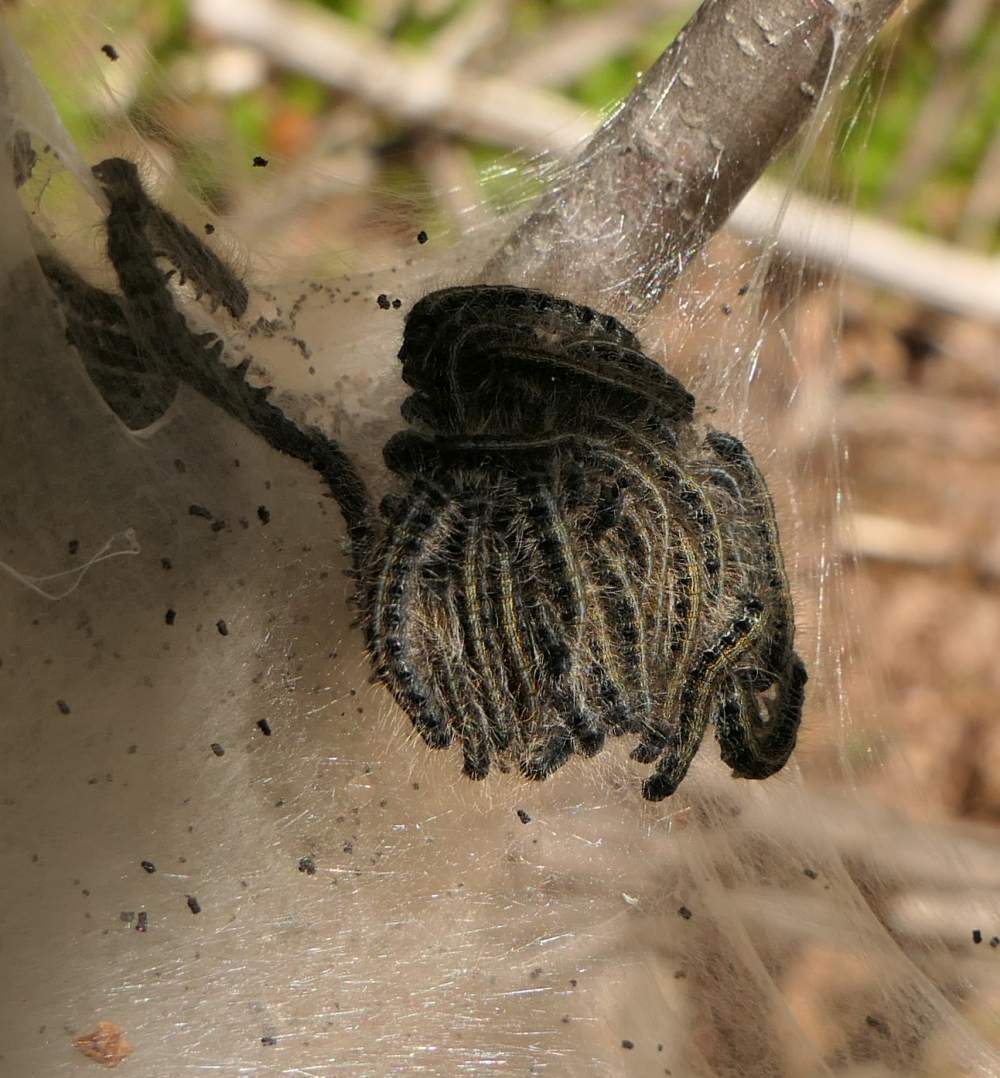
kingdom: Animalia
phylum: Arthropoda
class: Insecta
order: Lepidoptera
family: Lasiocampidae
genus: Malacosoma
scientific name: Malacosoma americana
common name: Eastern tent caterpillar moth
